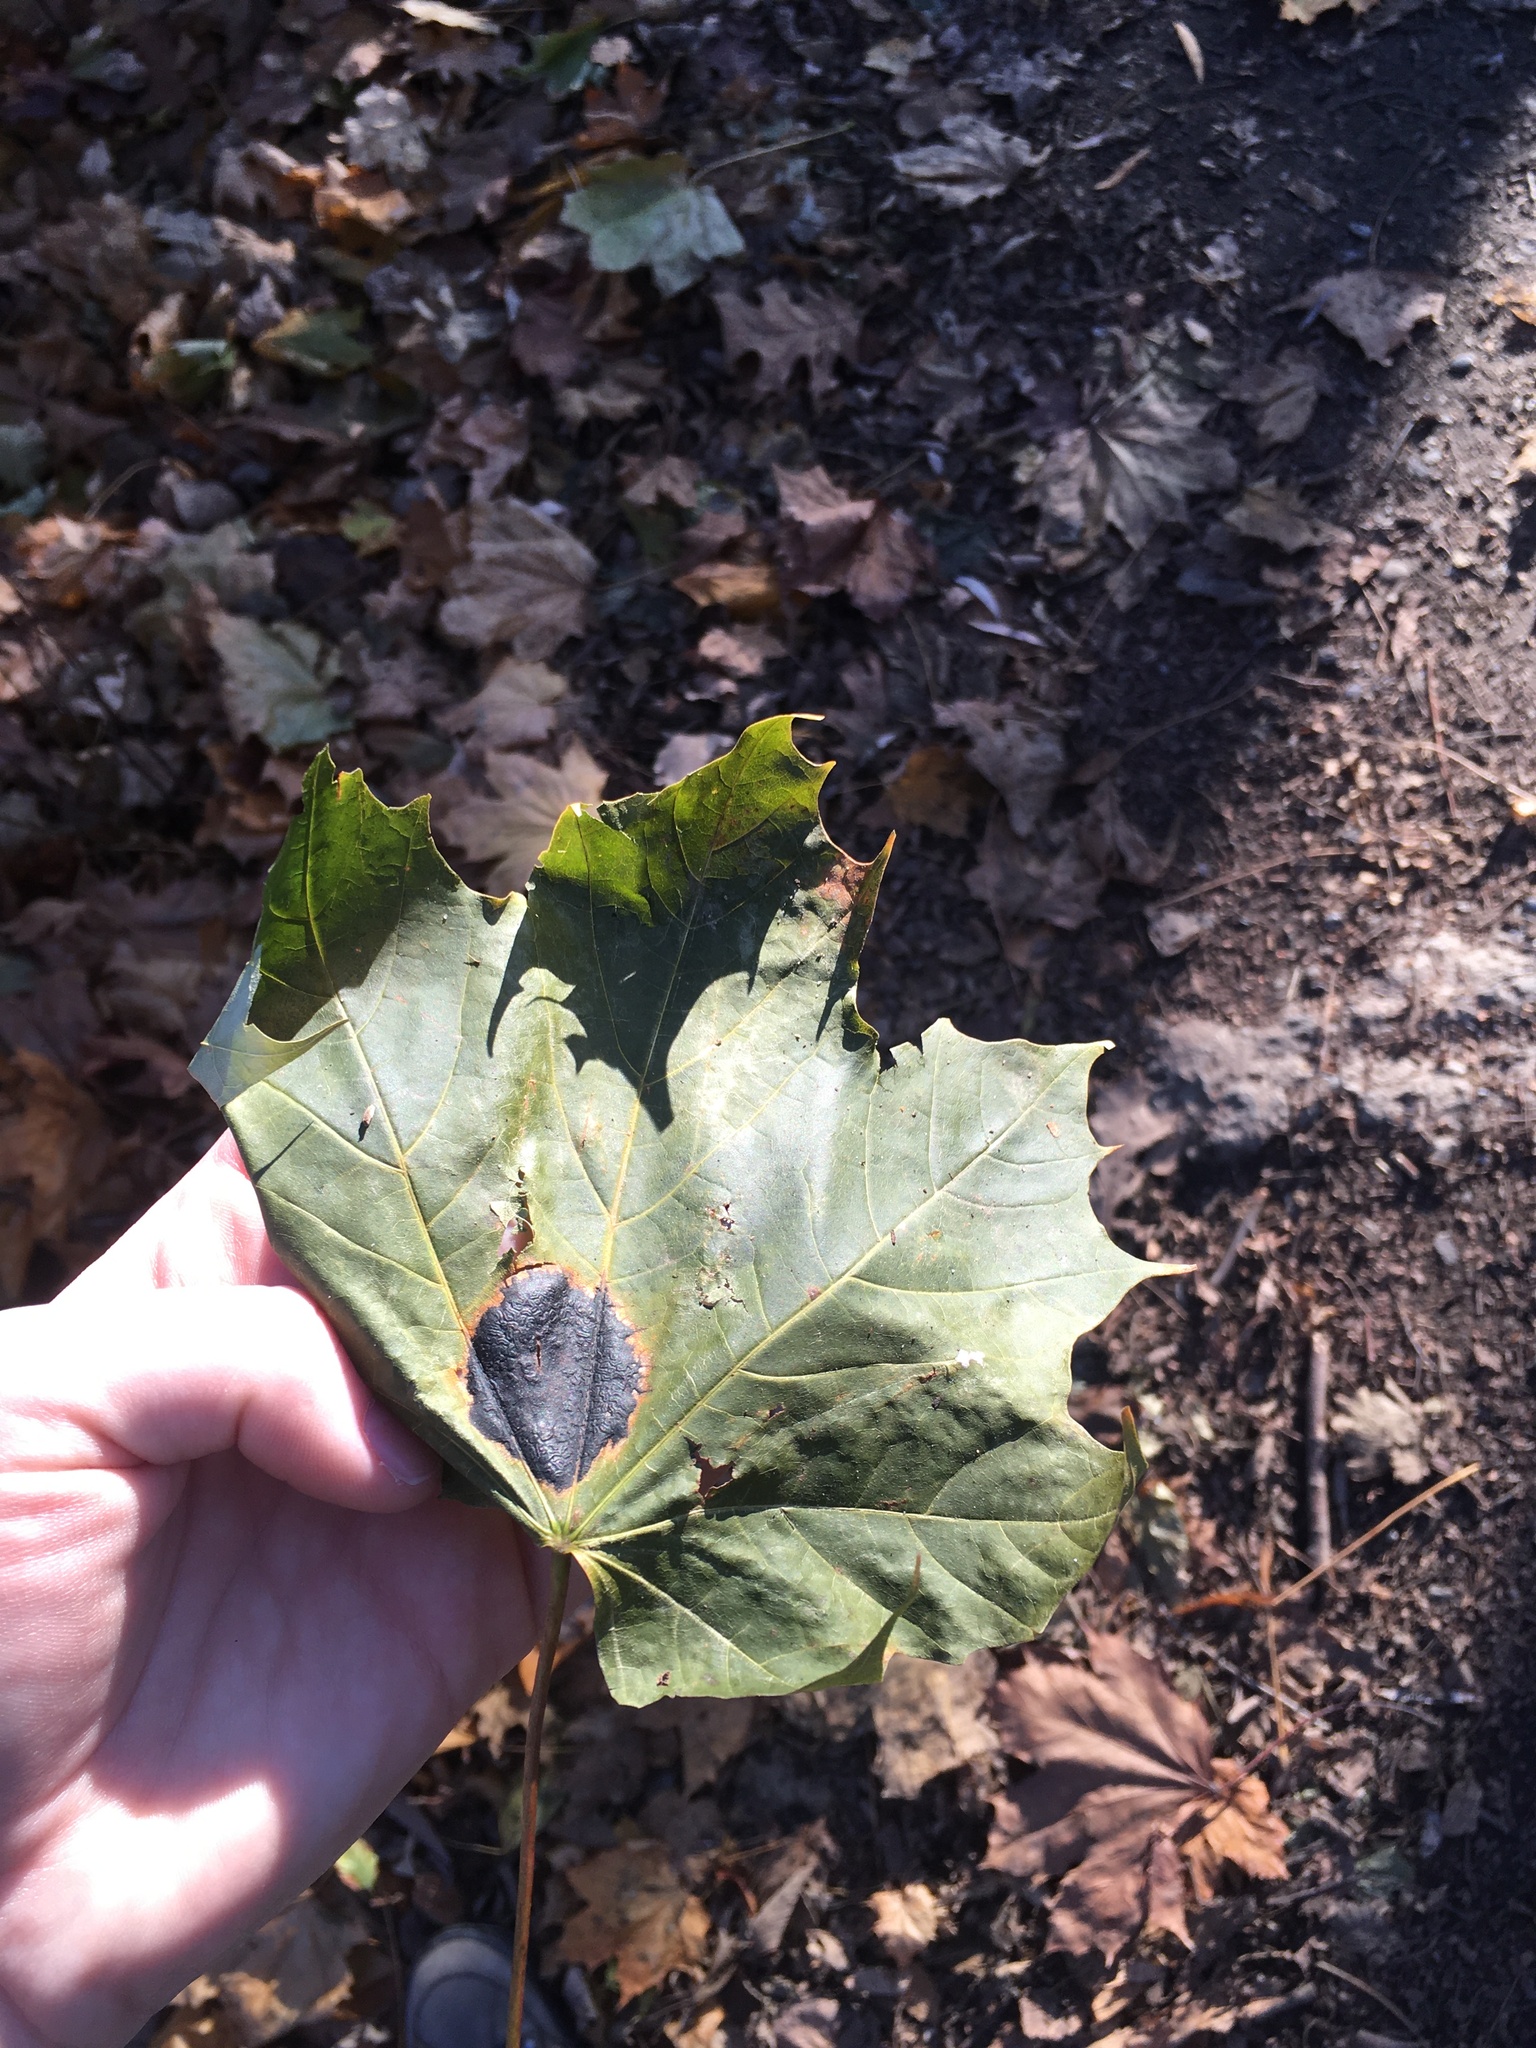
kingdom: Fungi
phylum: Ascomycota
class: Leotiomycetes
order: Rhytismatales
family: Rhytismataceae
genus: Rhytisma
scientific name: Rhytisma acerinum
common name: European tar spot
